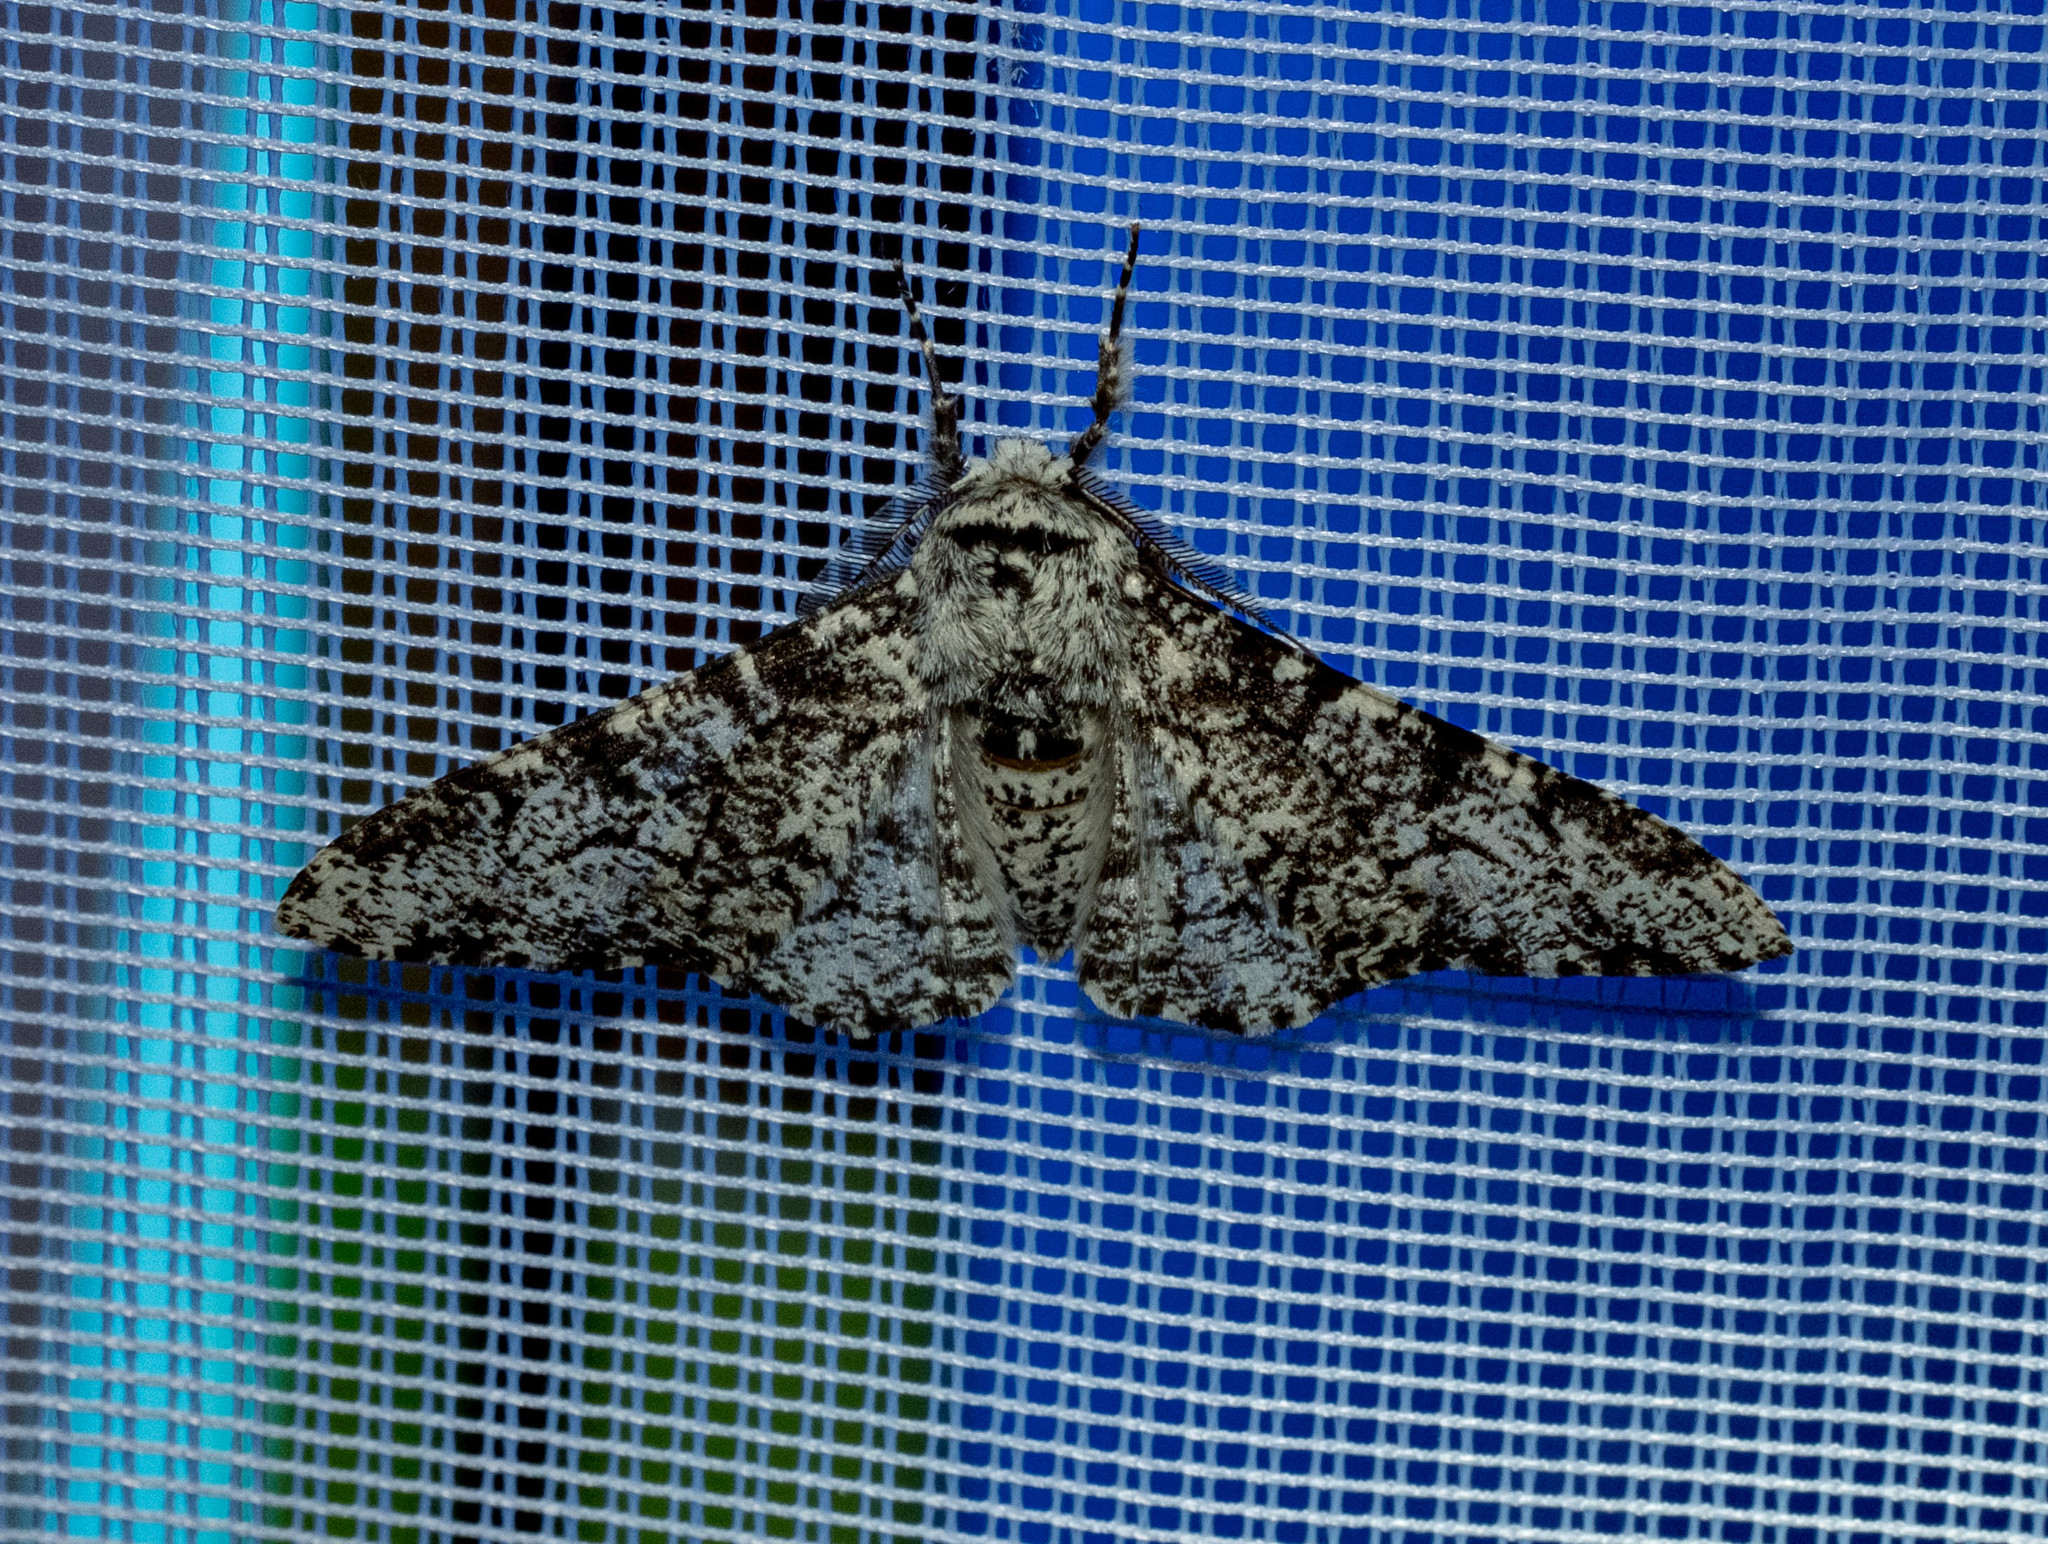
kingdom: Animalia
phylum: Arthropoda
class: Insecta
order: Lepidoptera
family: Geometridae
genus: Biston
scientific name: Biston betularia
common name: Peppered moth
